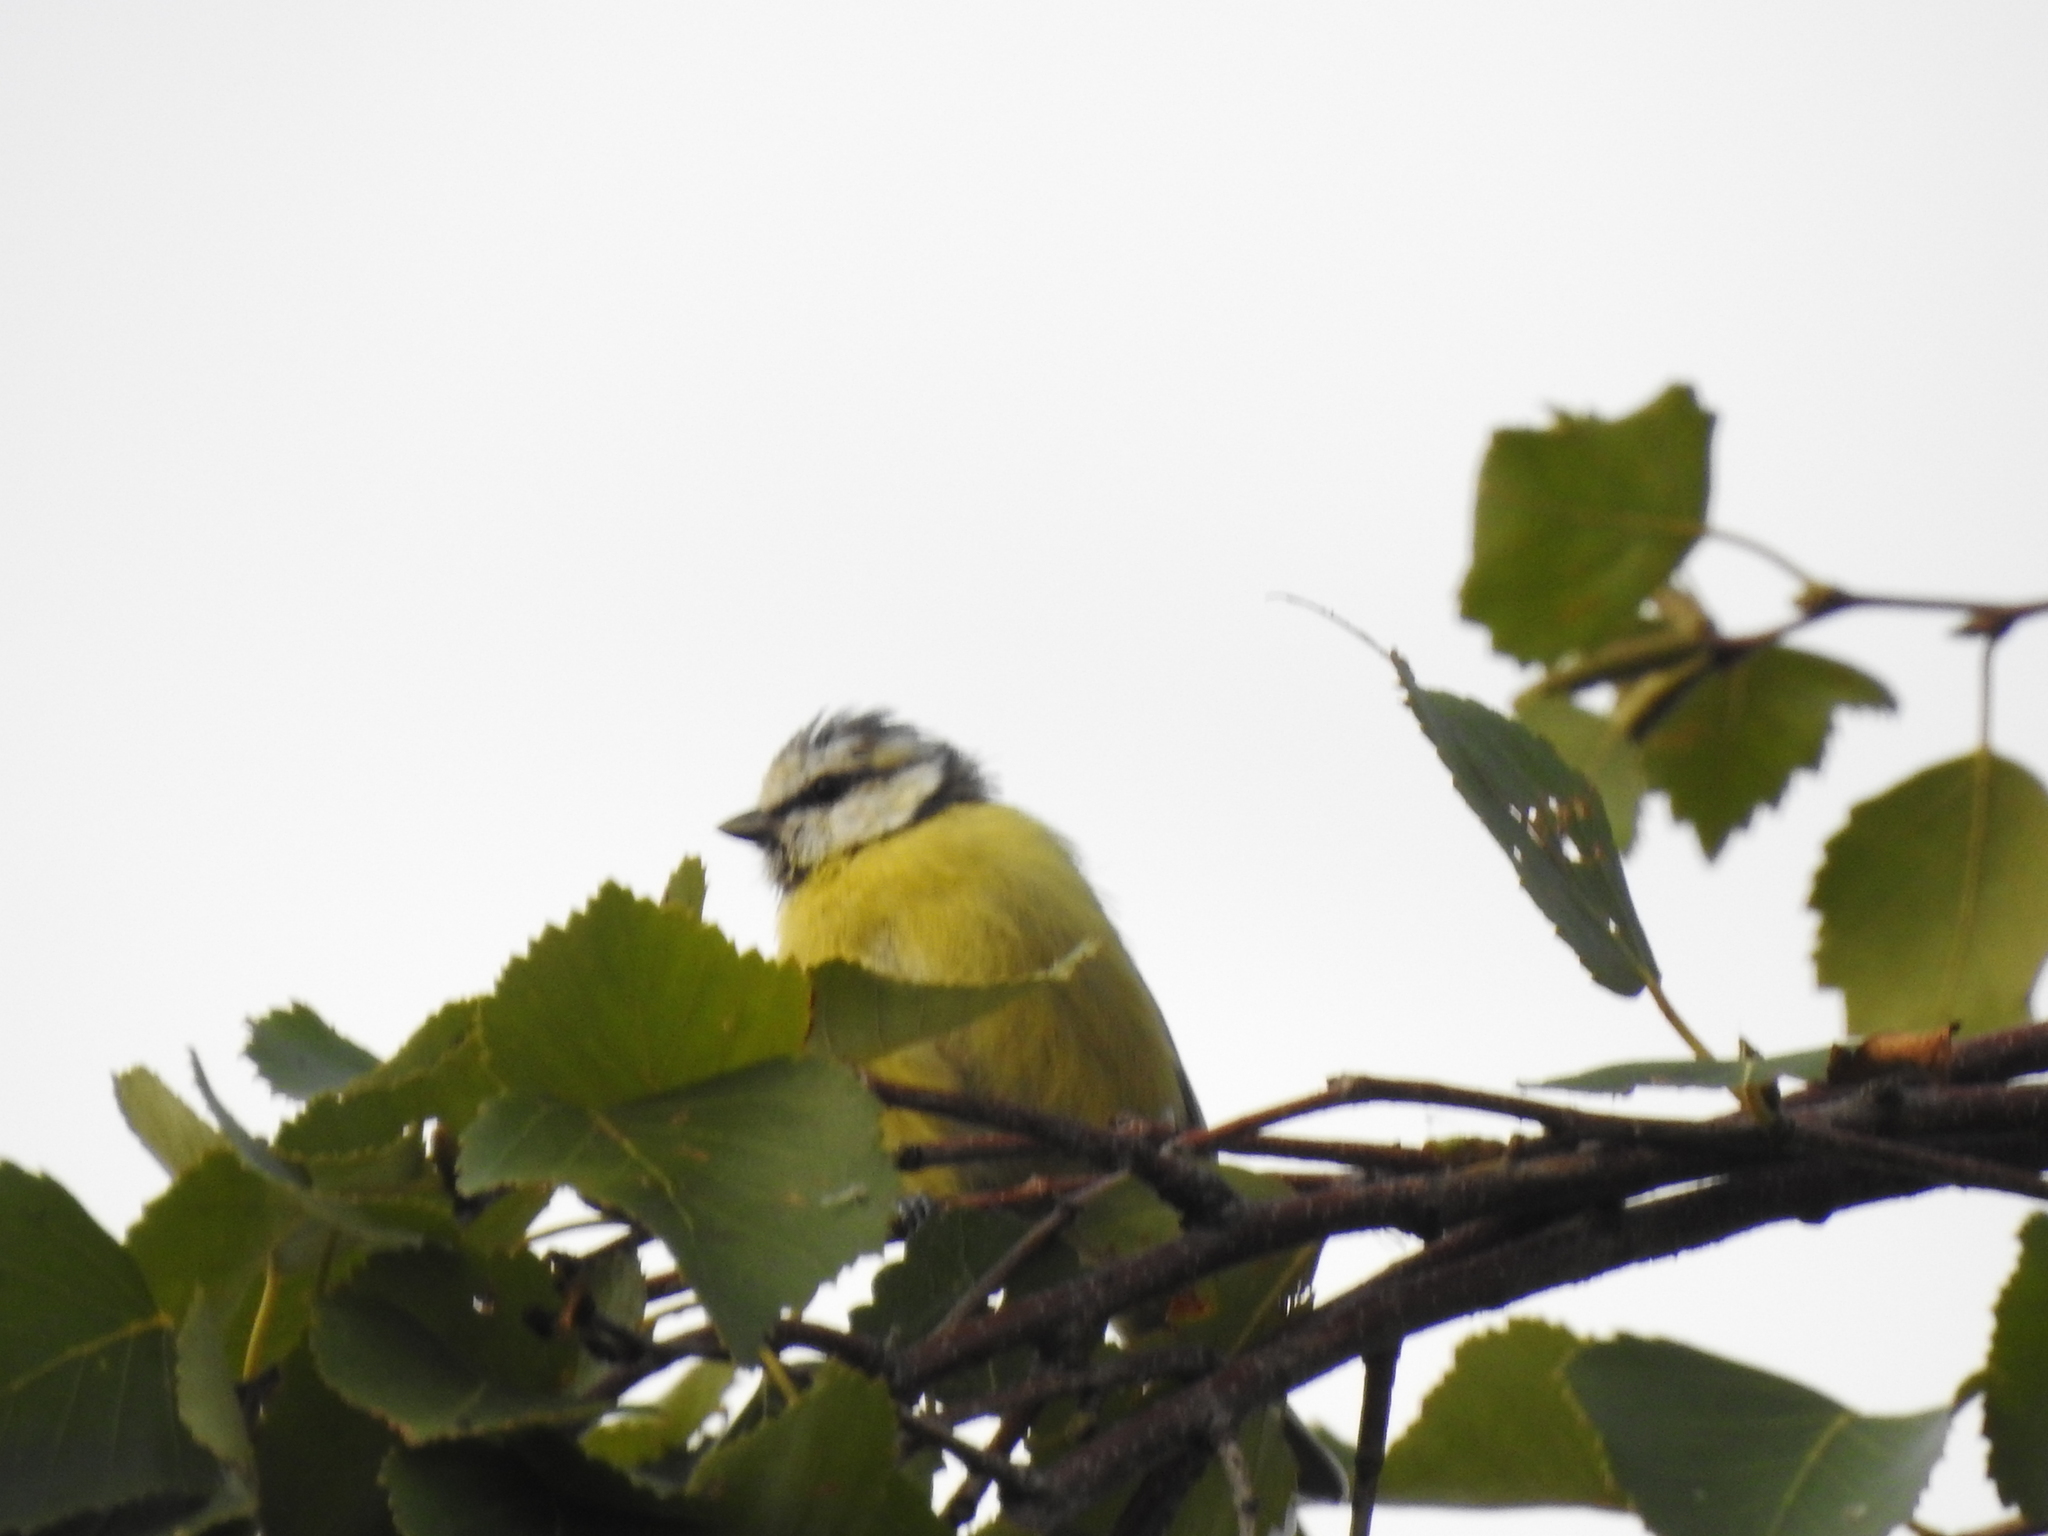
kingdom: Animalia
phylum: Chordata
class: Aves
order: Passeriformes
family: Paridae
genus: Cyanistes
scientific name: Cyanistes caeruleus
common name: Eurasian blue tit
